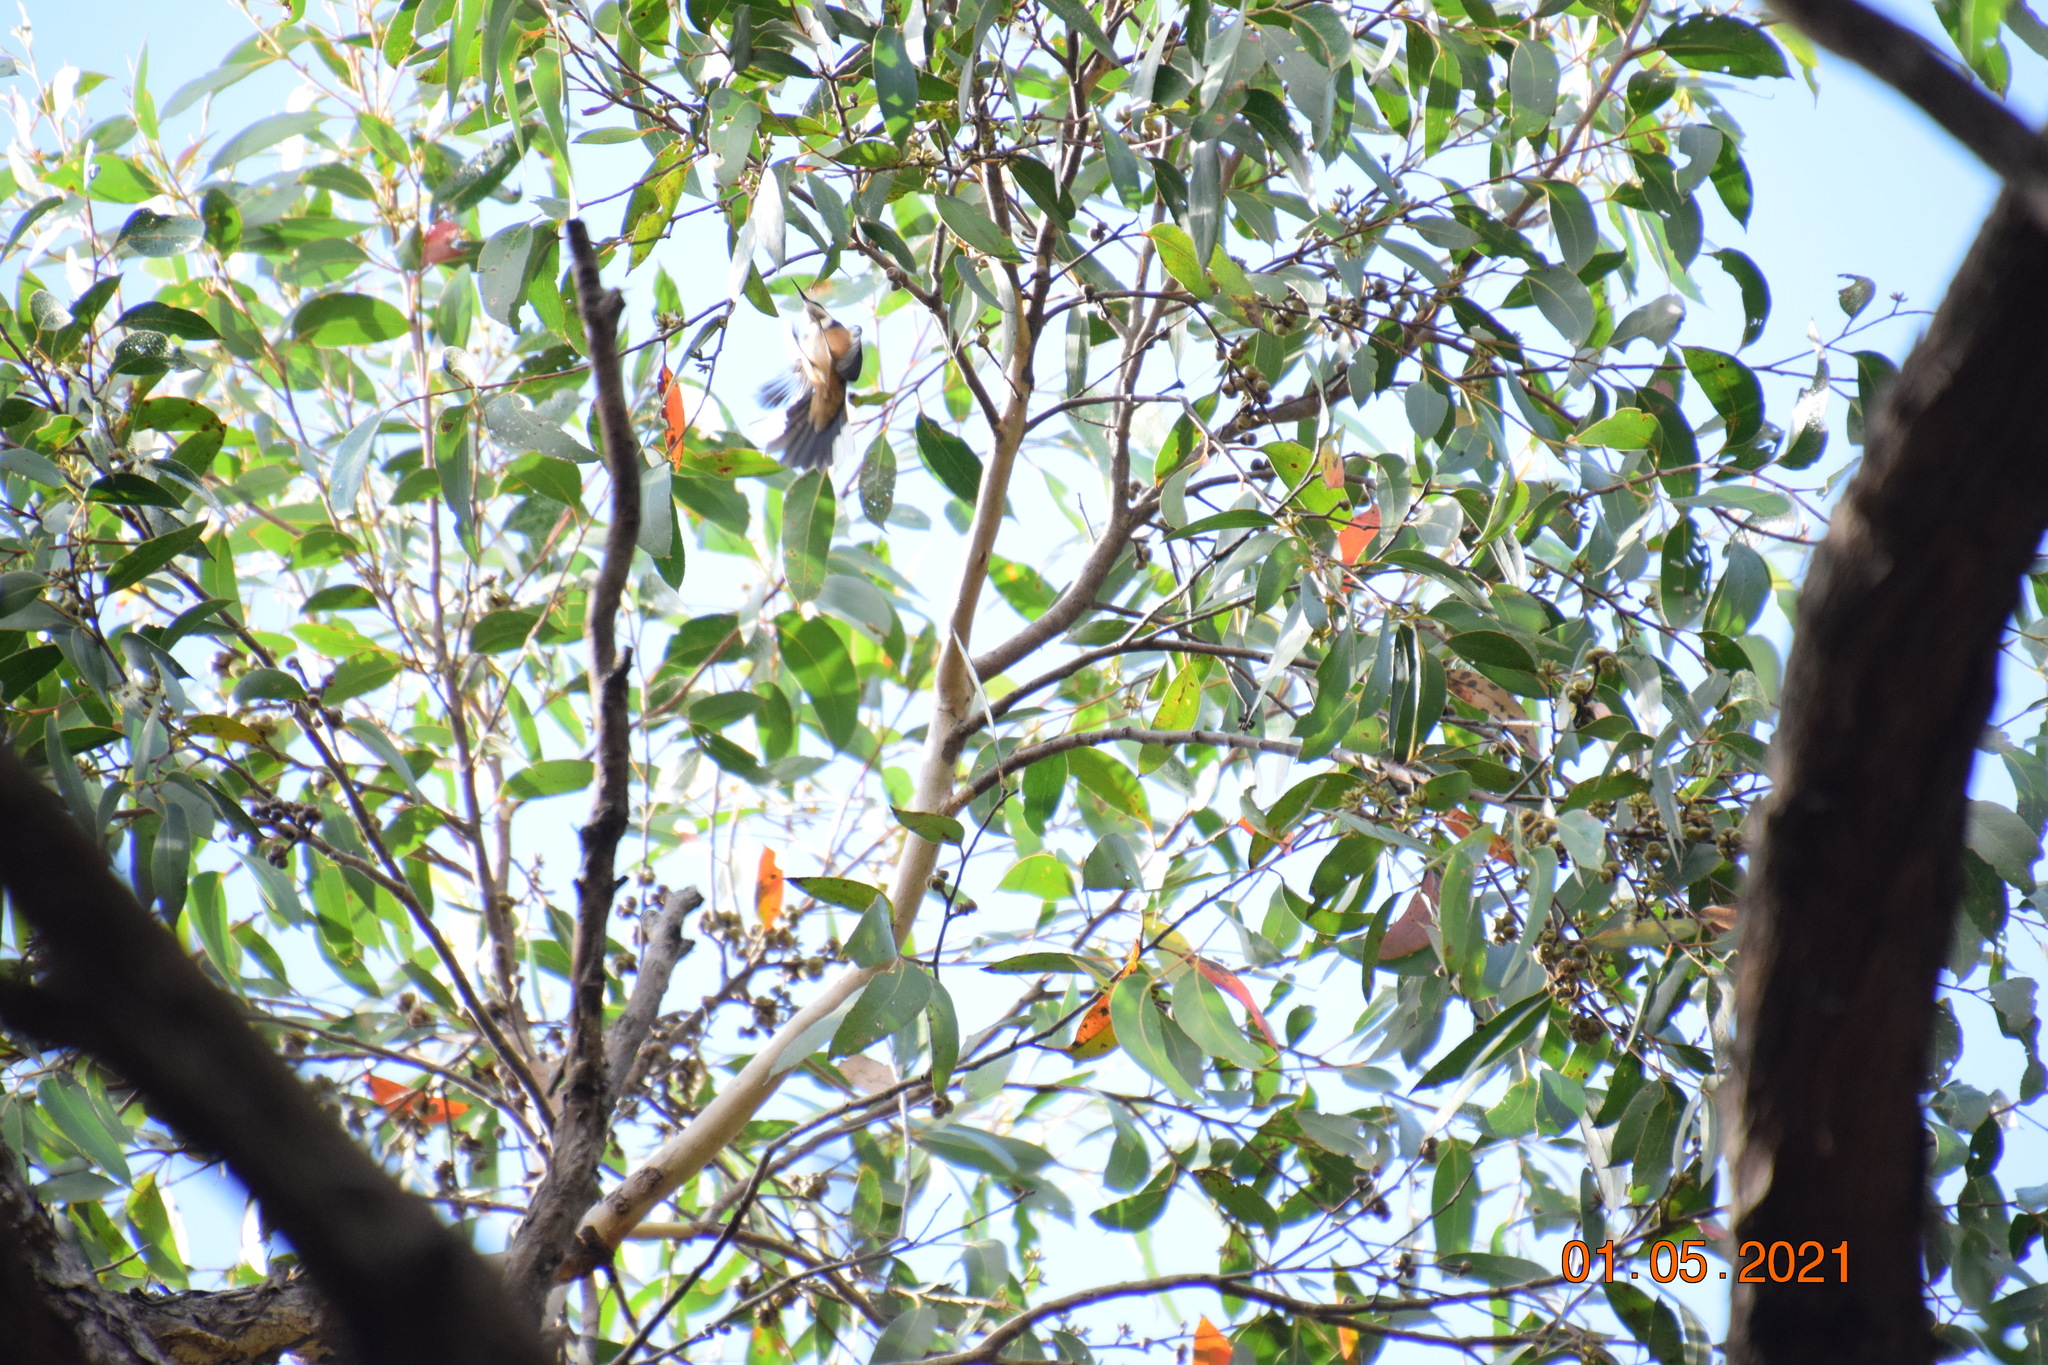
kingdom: Animalia
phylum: Chordata
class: Aves
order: Passeriformes
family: Meliphagidae
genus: Acanthorhynchus
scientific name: Acanthorhynchus tenuirostris
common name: Eastern spinebill
